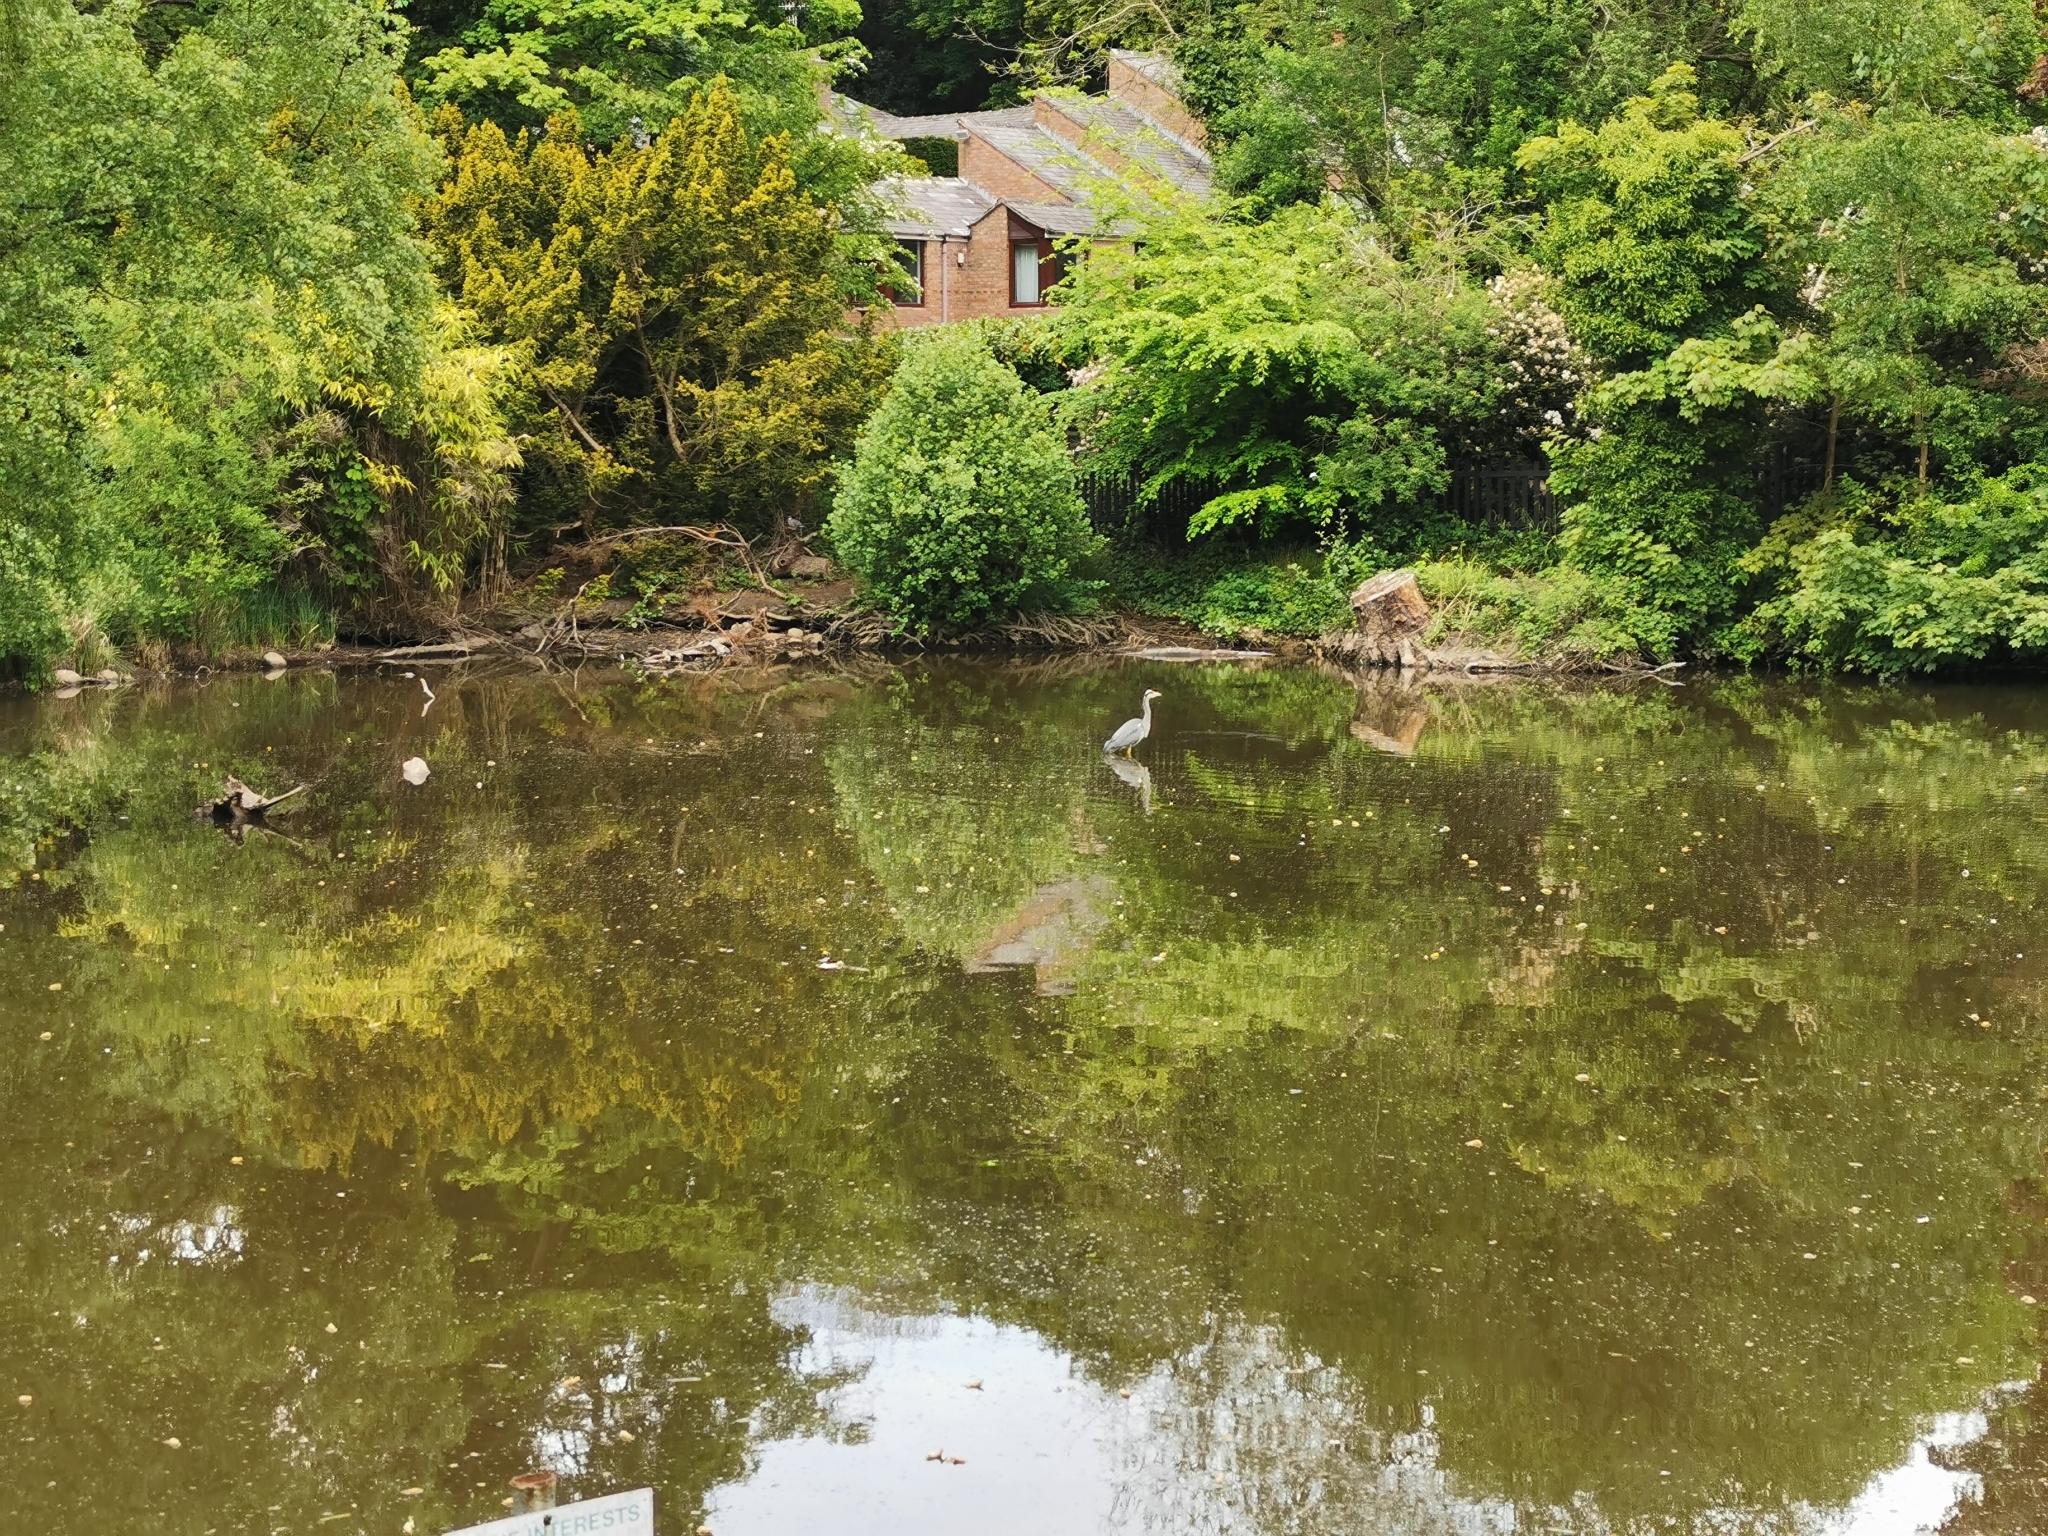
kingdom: Animalia
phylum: Chordata
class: Aves
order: Pelecaniformes
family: Ardeidae
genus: Ardea
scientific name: Ardea cinerea
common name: Grey heron
